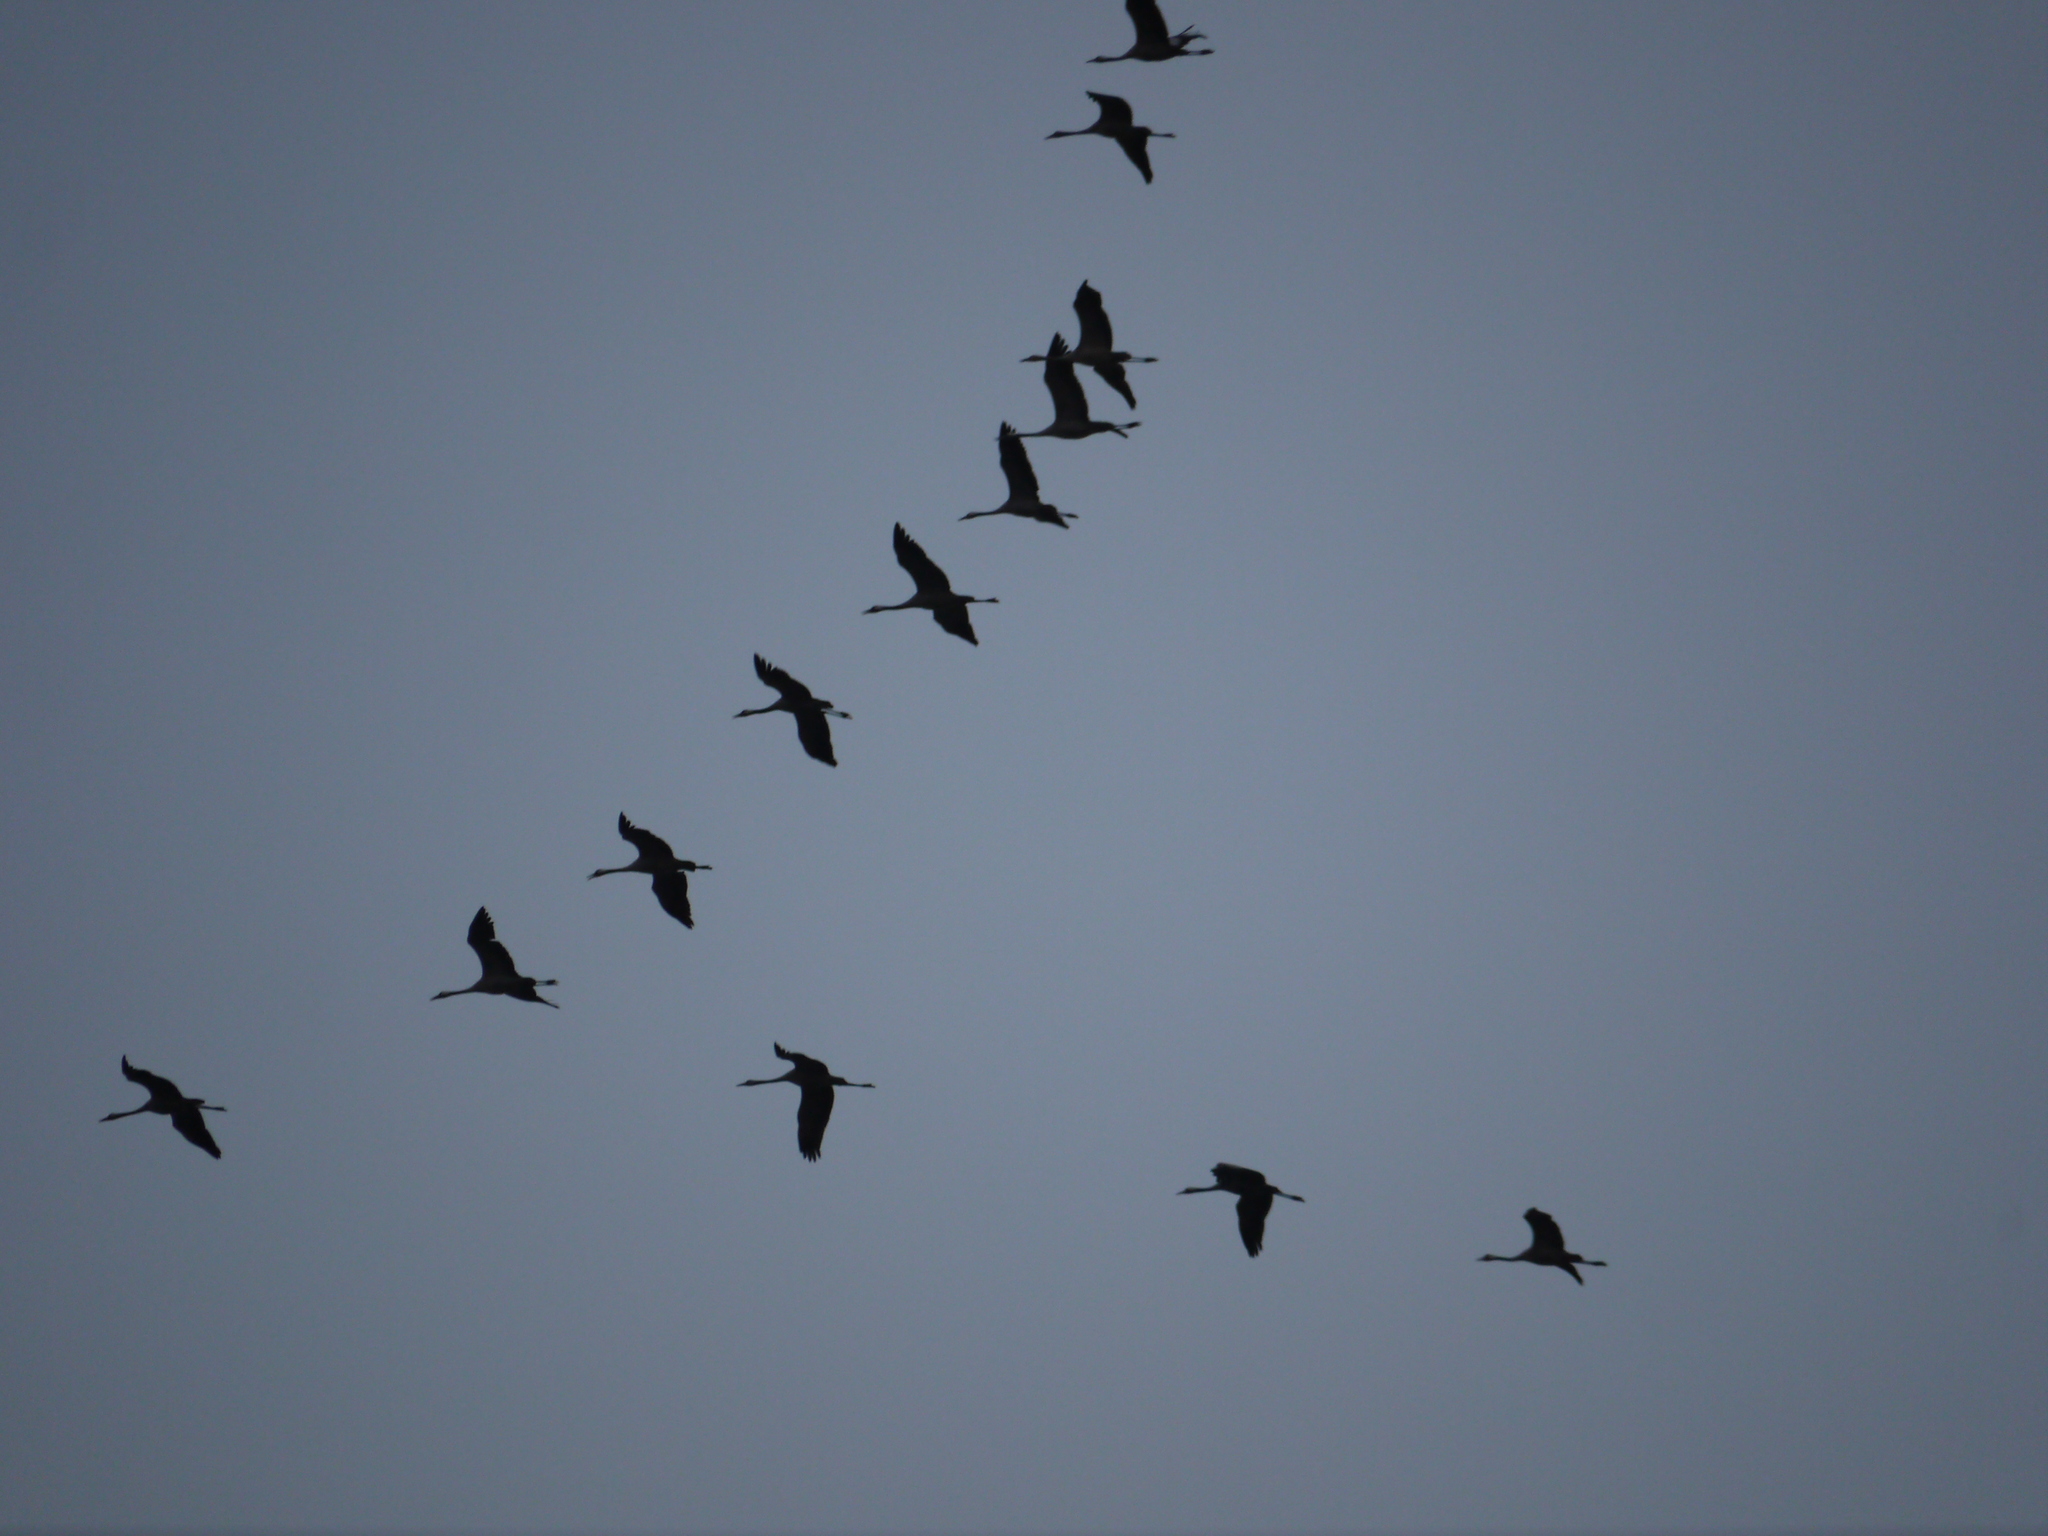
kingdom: Animalia
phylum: Chordata
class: Aves
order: Gruiformes
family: Gruidae
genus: Grus
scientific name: Grus grus
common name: Common crane
